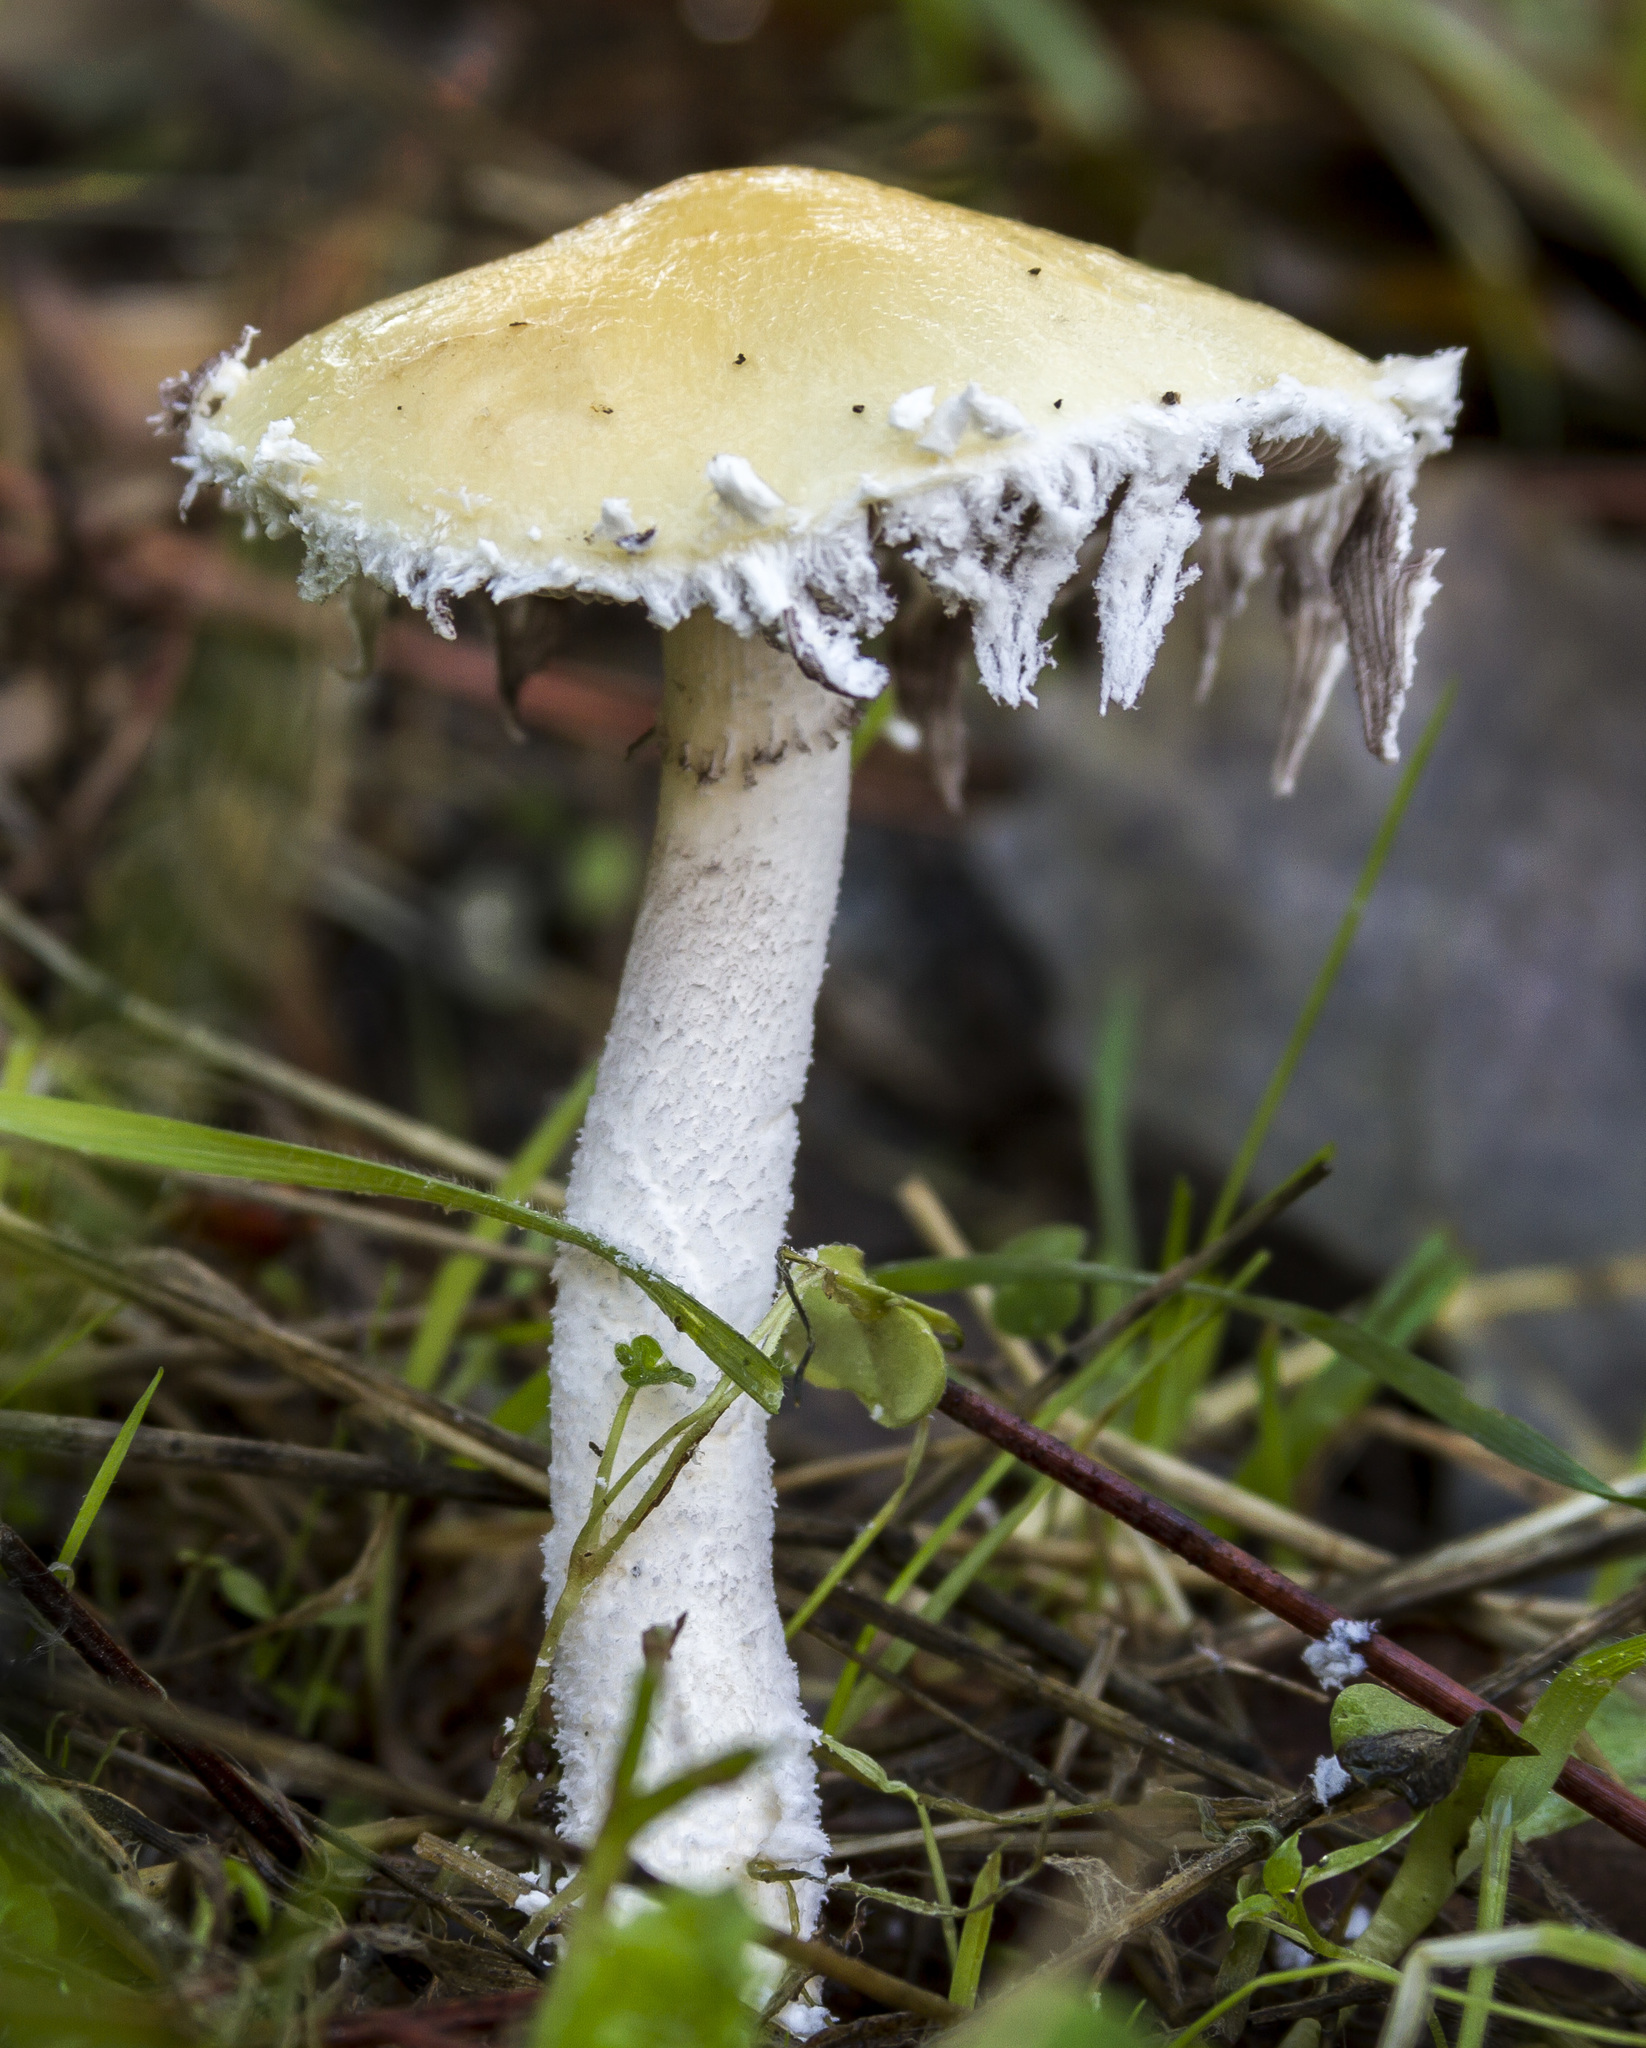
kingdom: Fungi
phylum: Basidiomycota
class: Agaricomycetes
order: Agaricales
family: Strophariaceae
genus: Stropharia
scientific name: Stropharia ambigua
